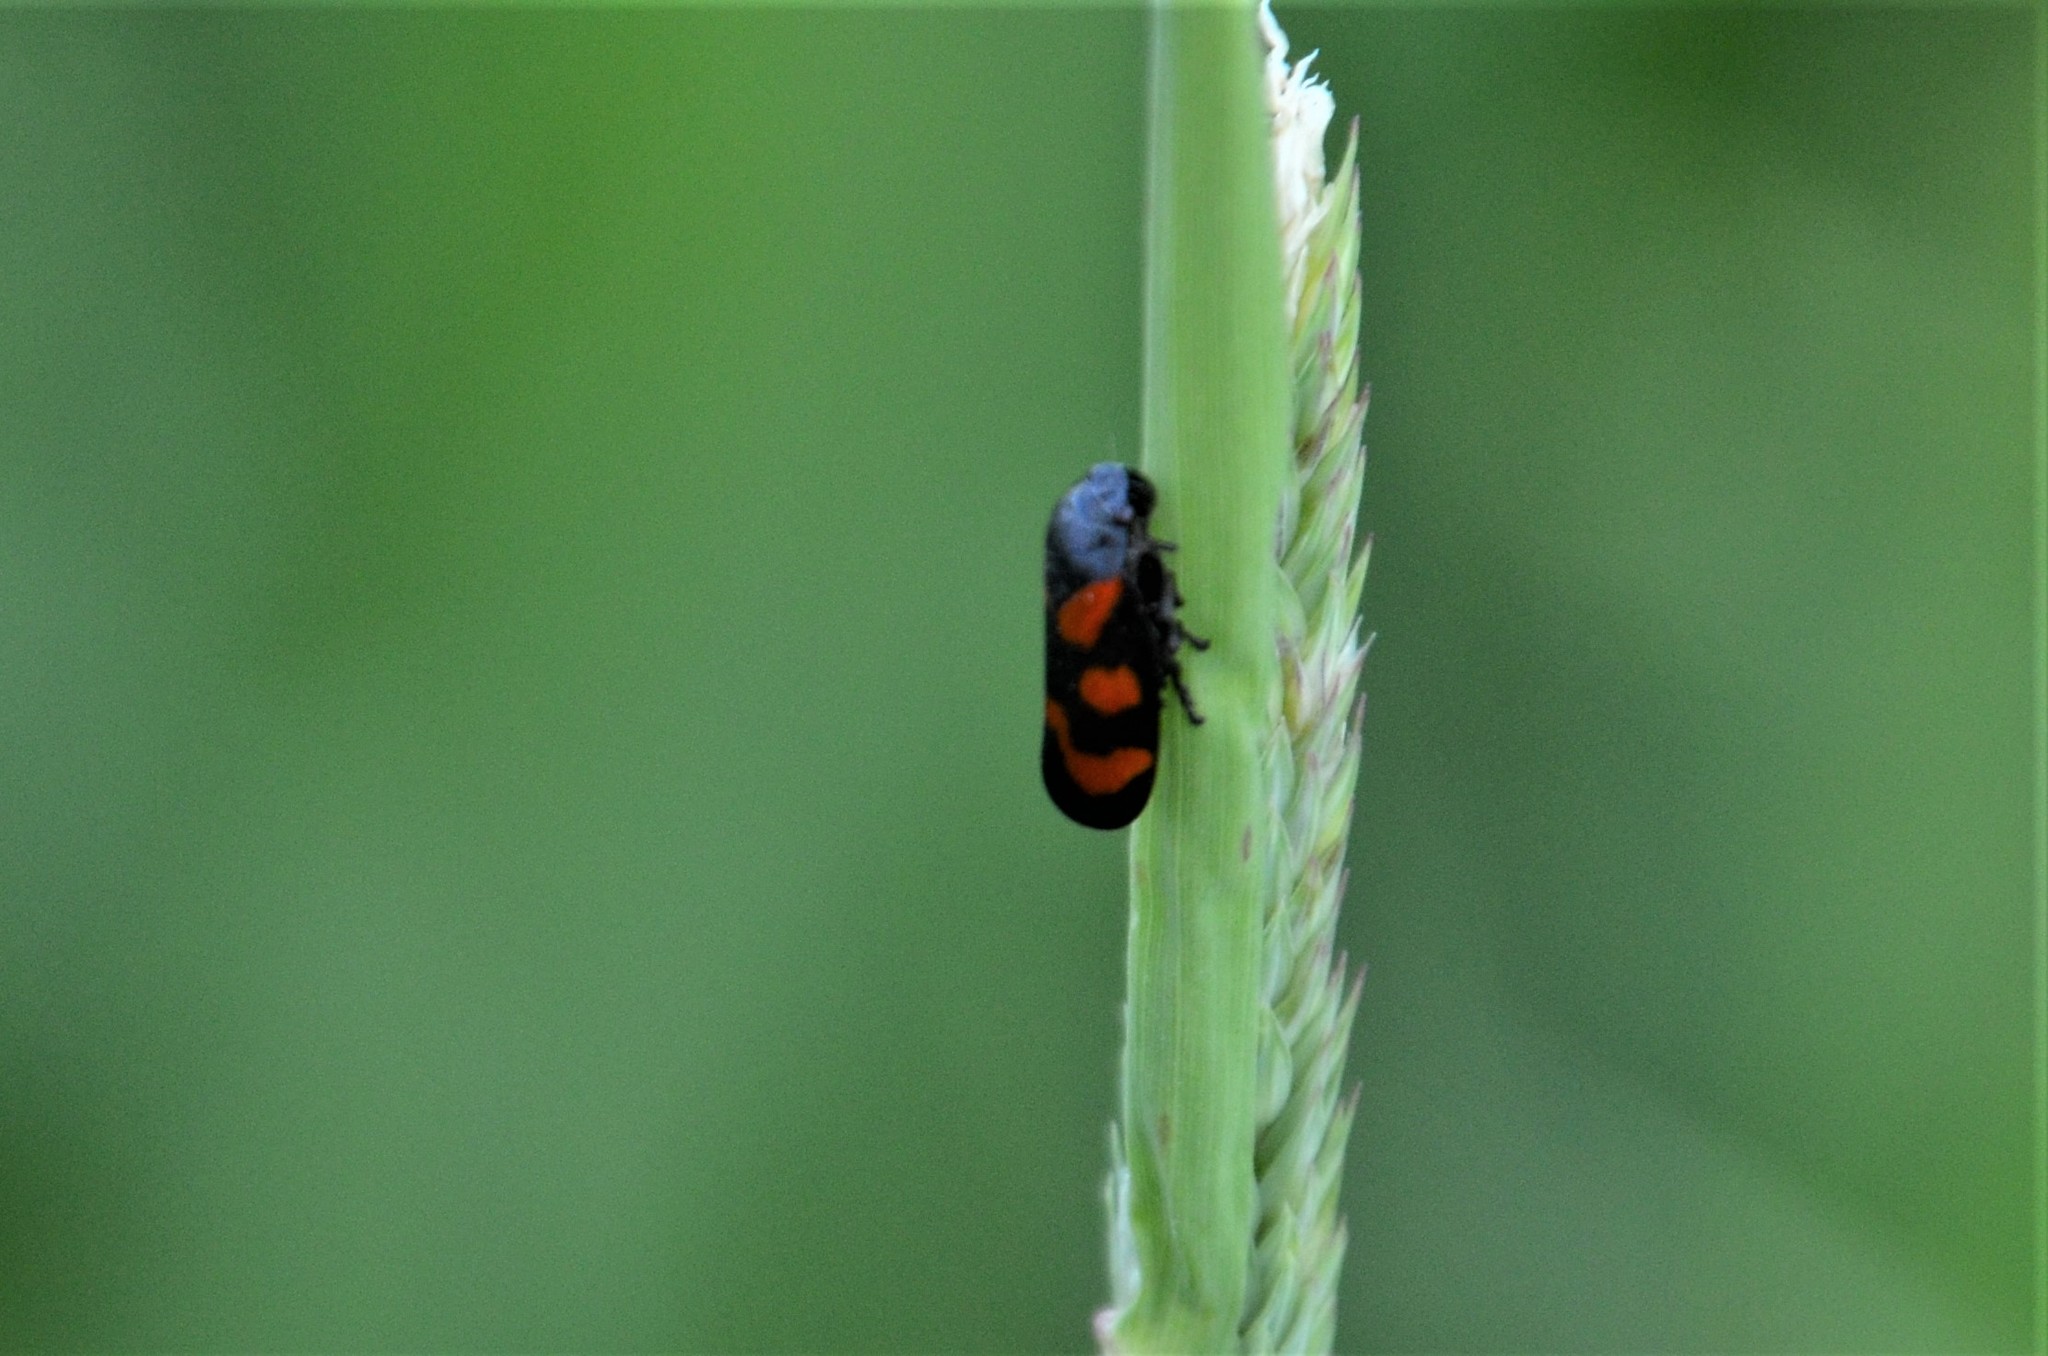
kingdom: Animalia
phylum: Arthropoda
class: Insecta
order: Hemiptera
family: Cercopidae
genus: Cercopis
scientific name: Cercopis vulnerata
